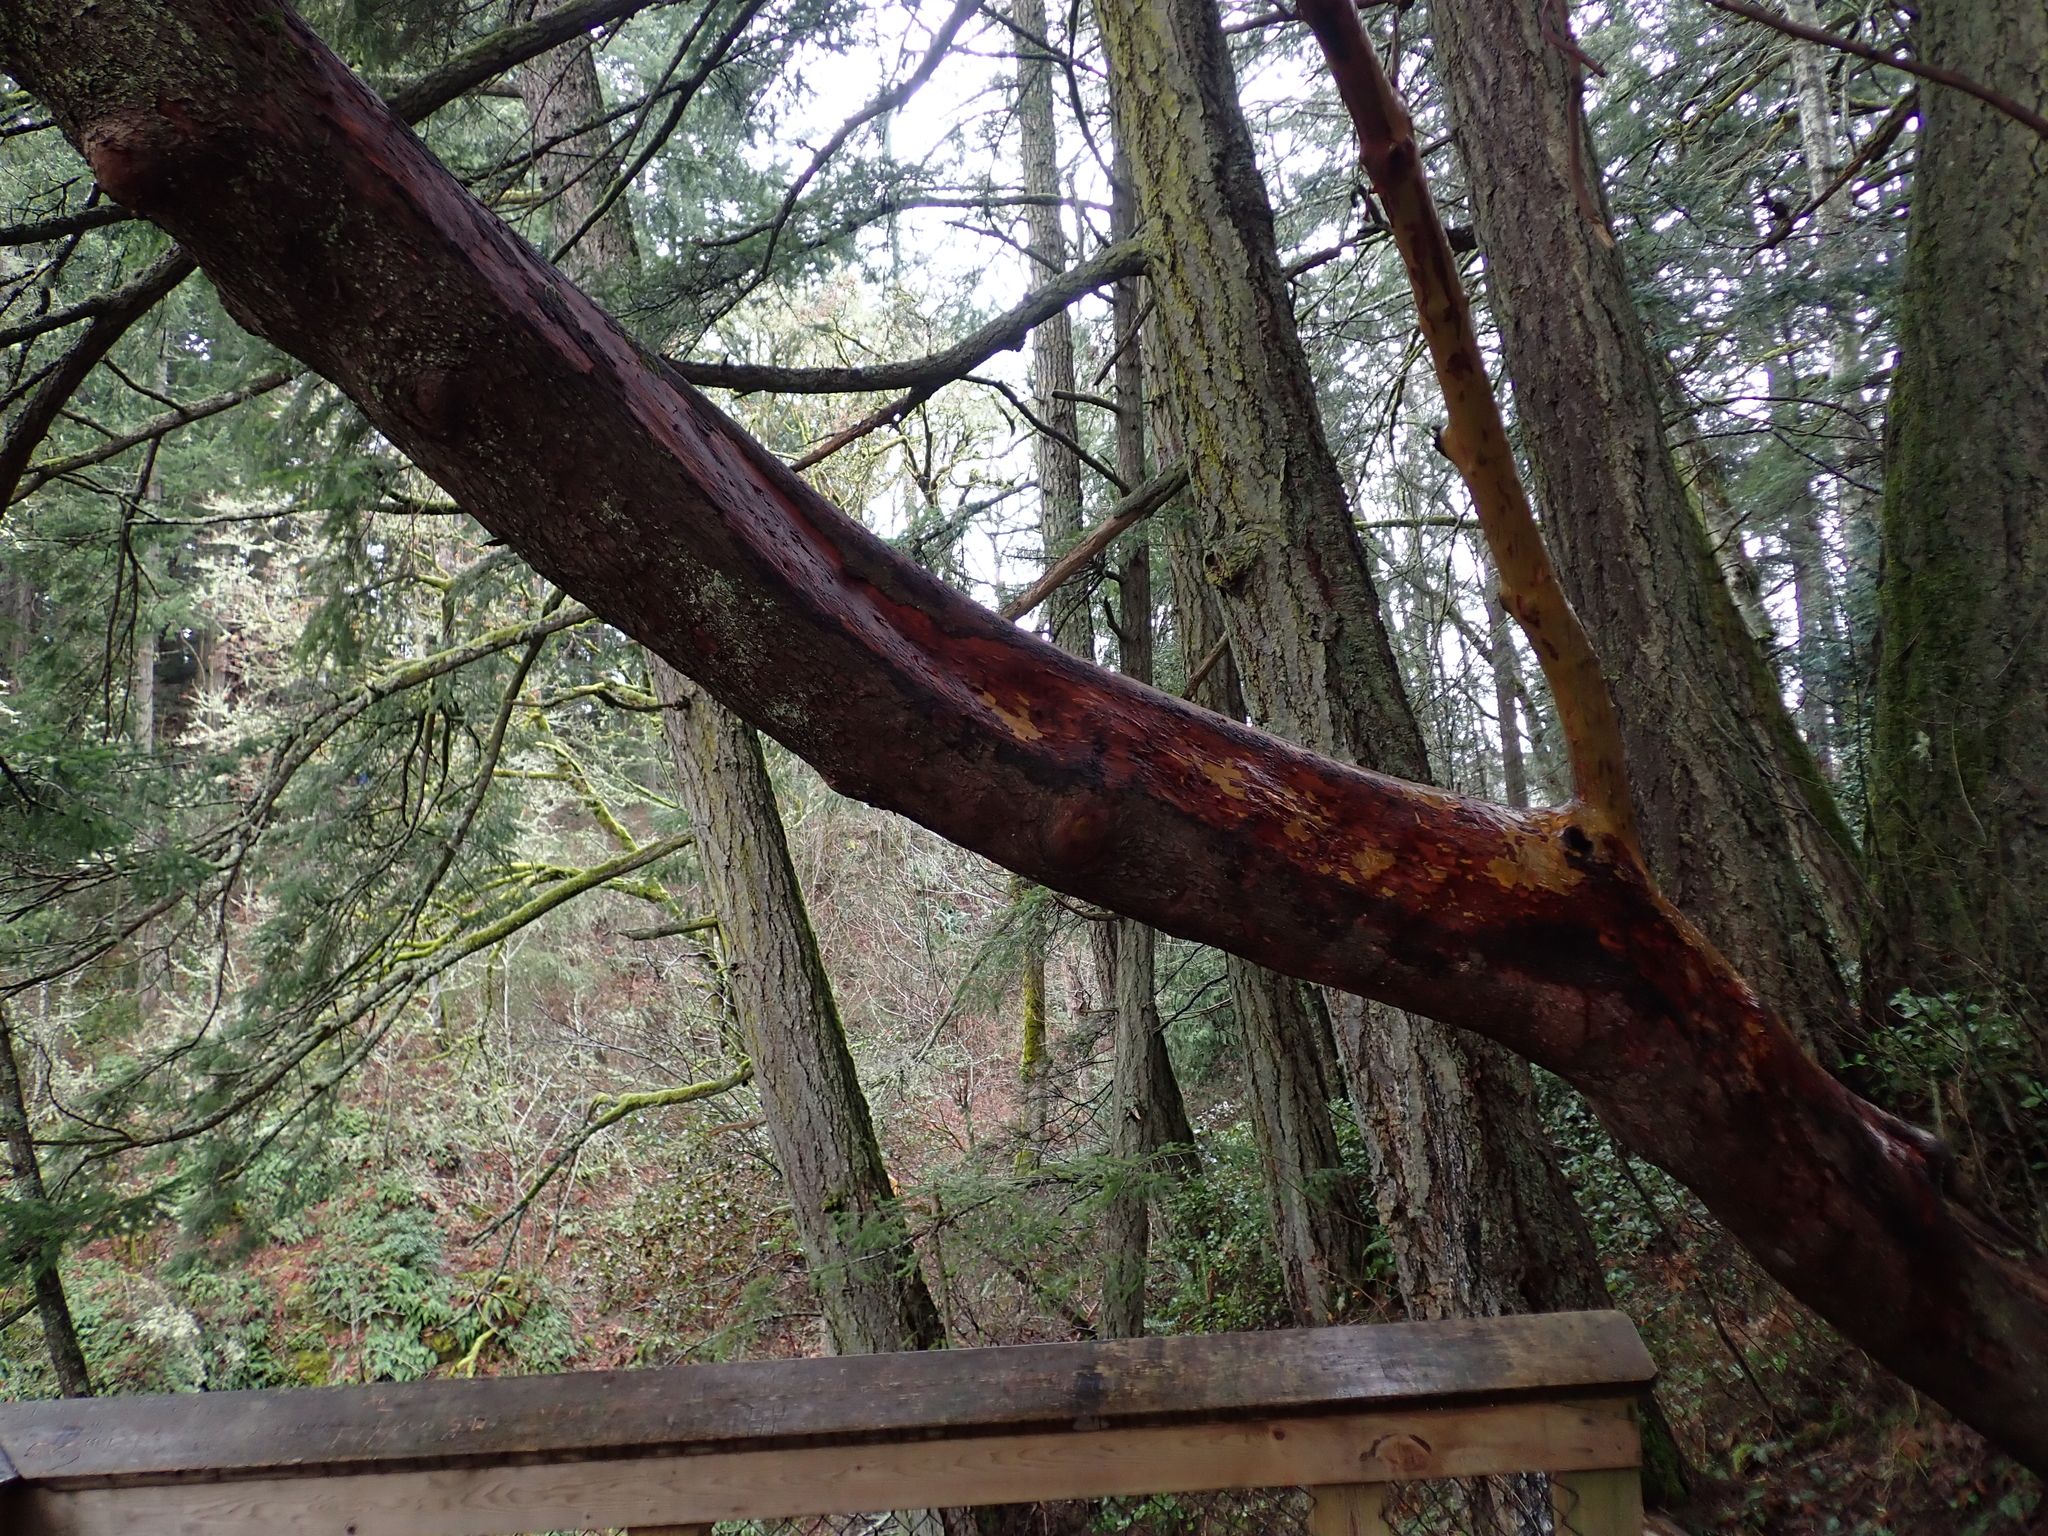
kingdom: Plantae
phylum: Tracheophyta
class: Magnoliopsida
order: Ericales
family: Ericaceae
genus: Arbutus
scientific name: Arbutus menziesii
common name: Pacific madrone
